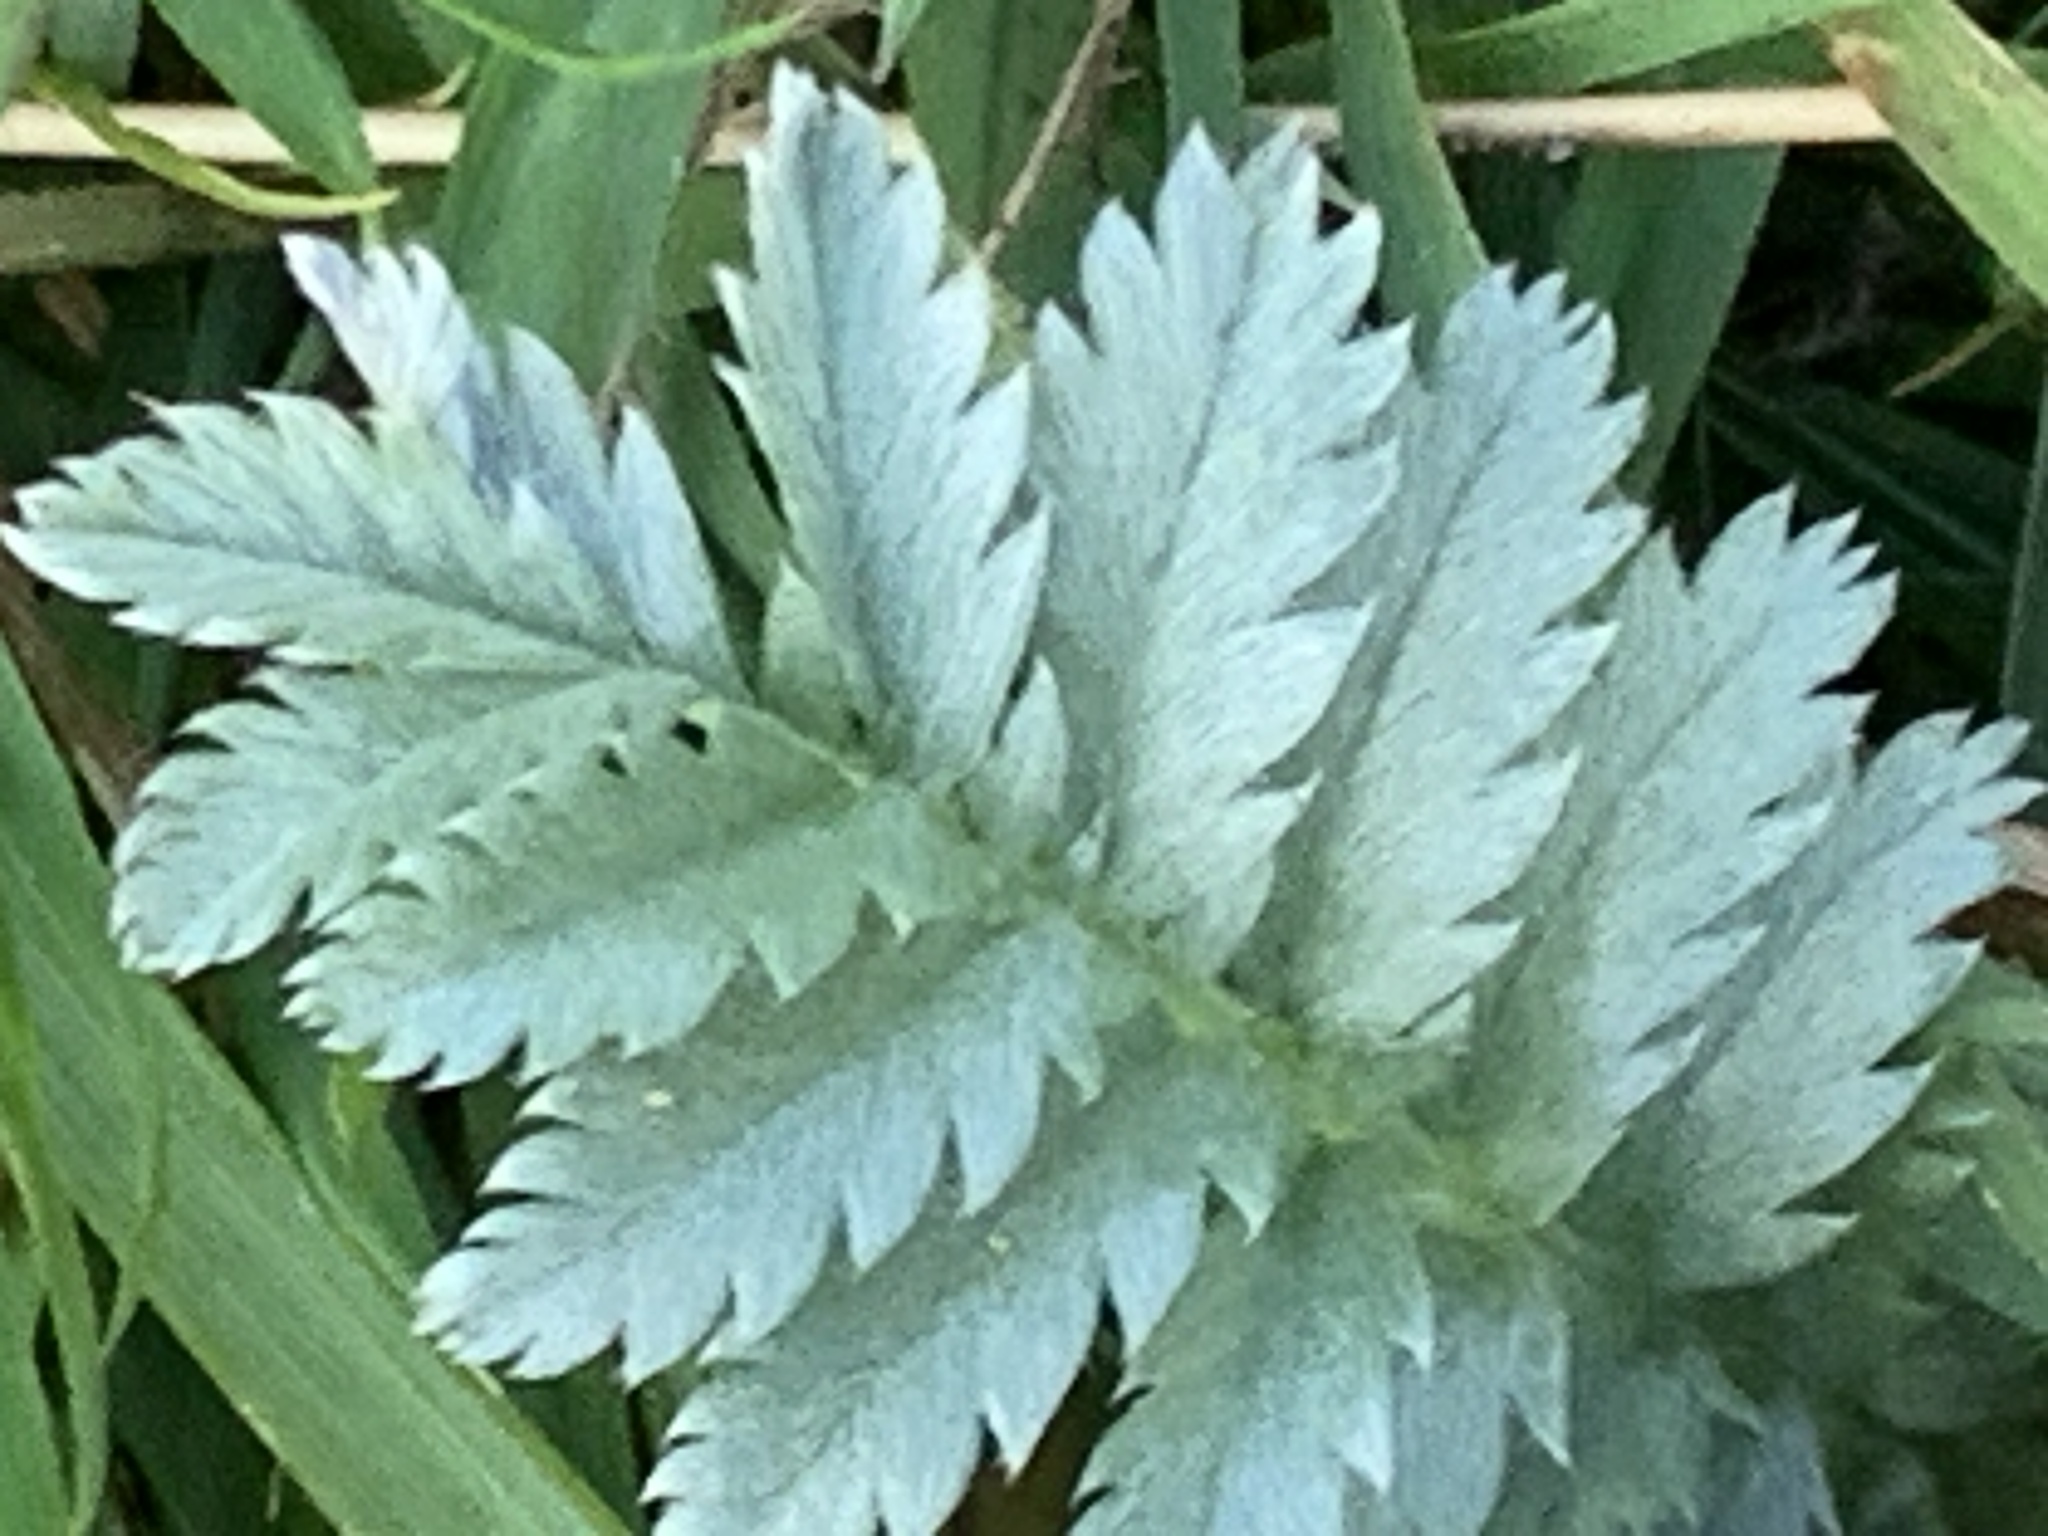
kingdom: Plantae
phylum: Tracheophyta
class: Magnoliopsida
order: Rosales
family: Rosaceae
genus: Argentina
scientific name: Argentina anserina
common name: Common silverweed
